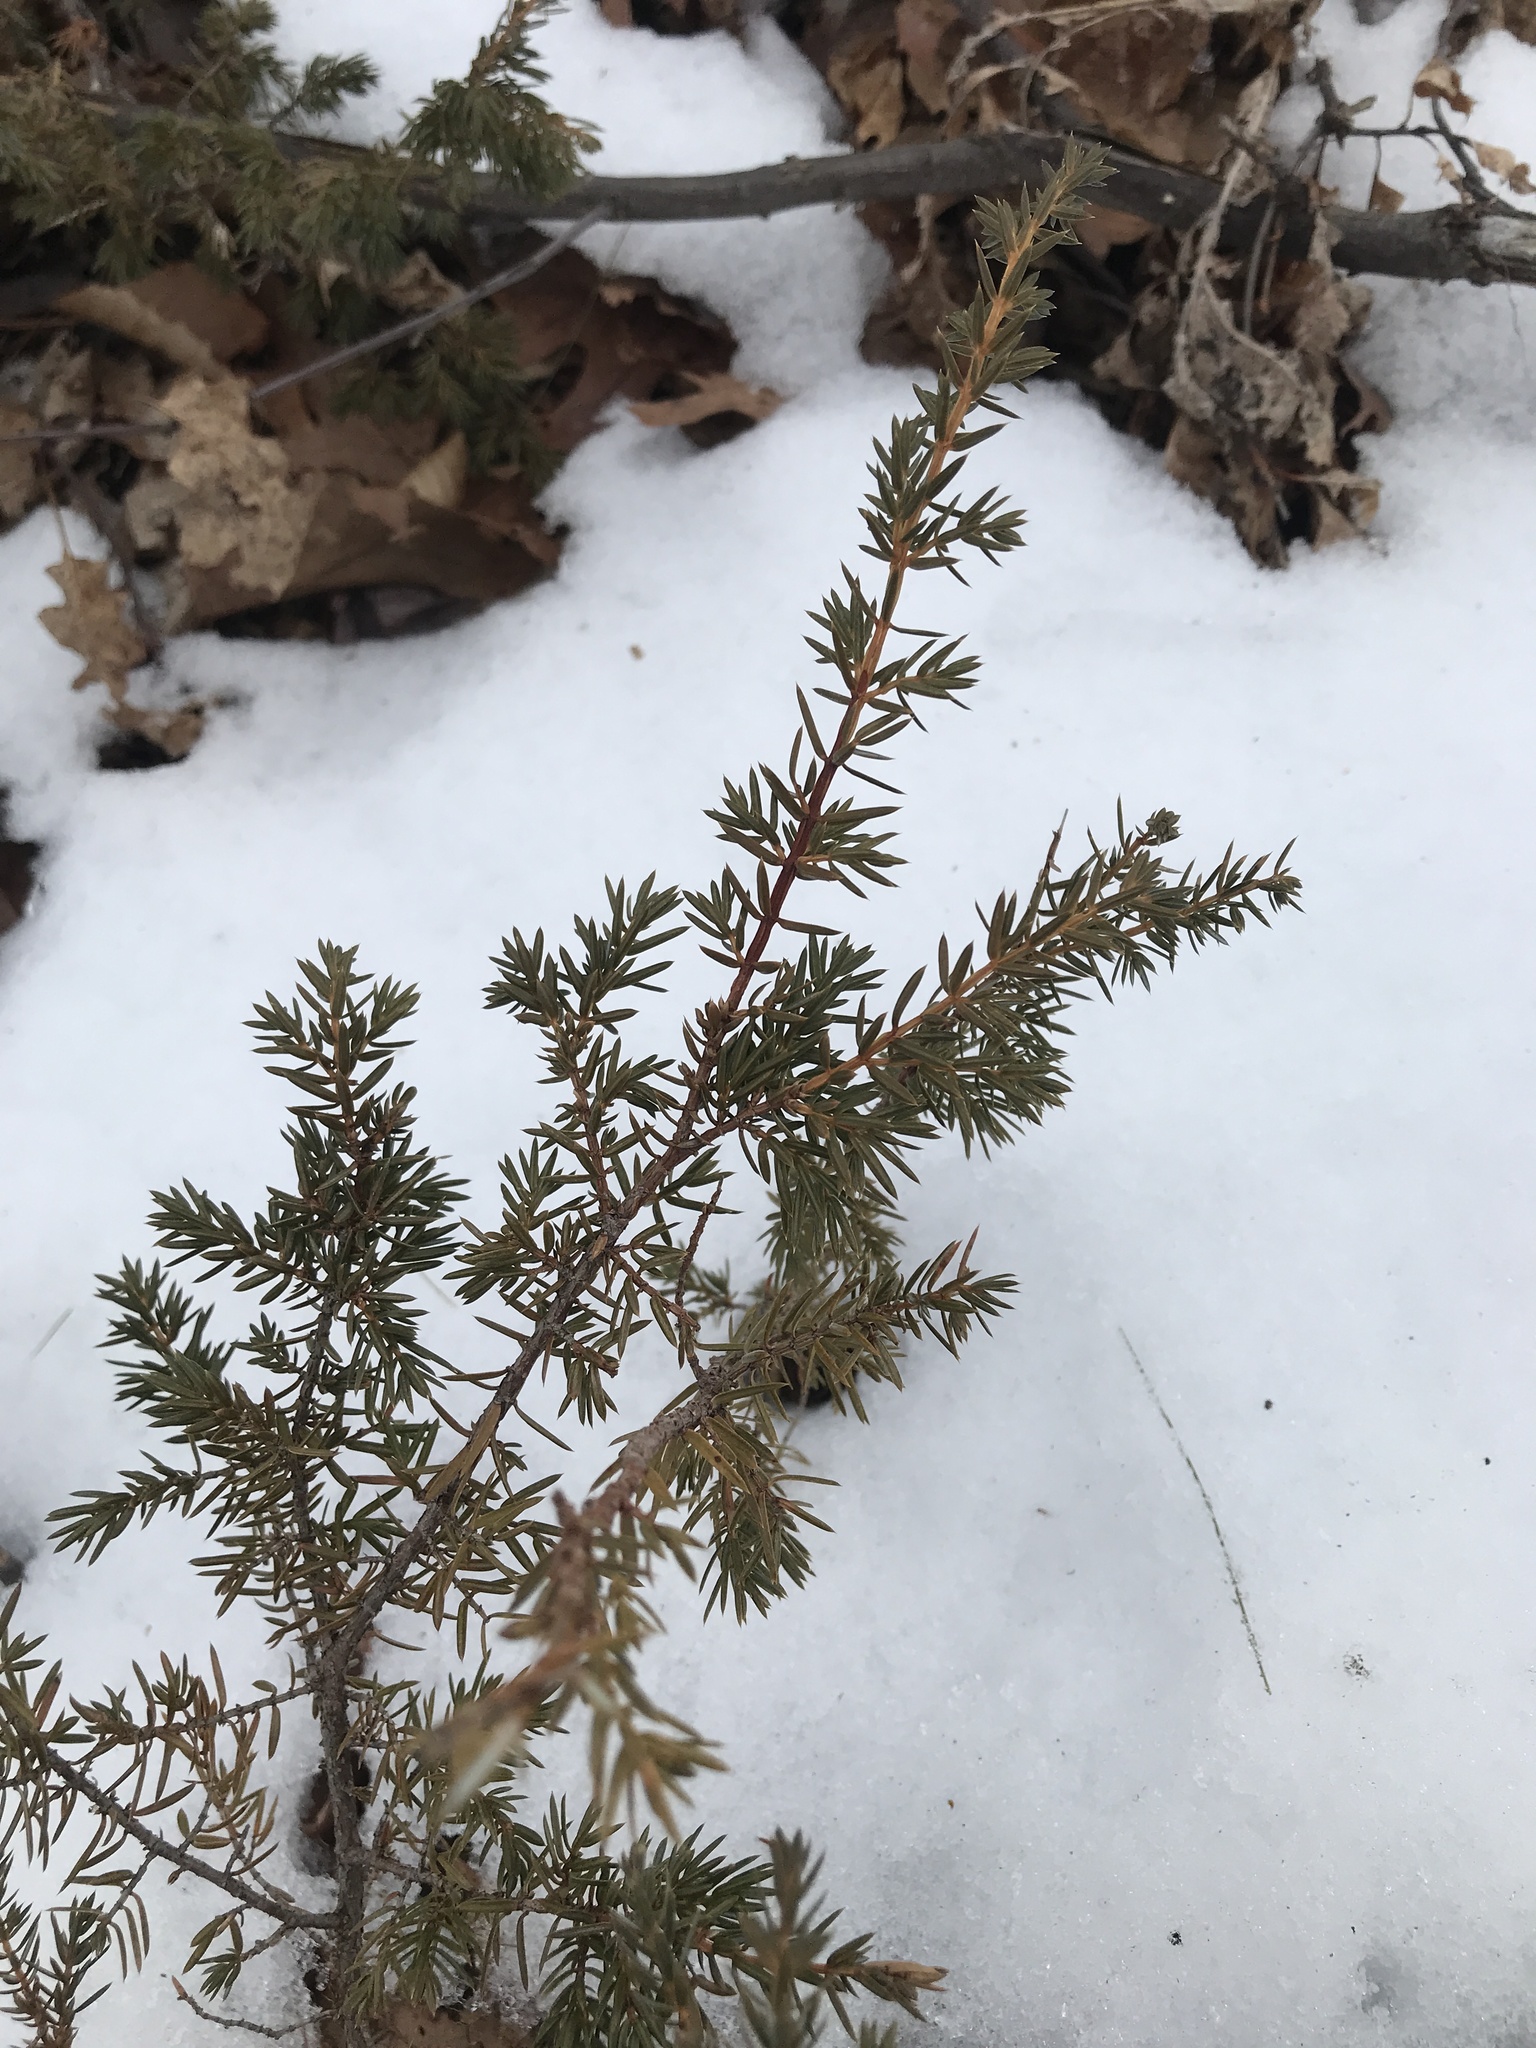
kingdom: Plantae
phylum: Tracheophyta
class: Pinopsida
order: Pinales
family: Cupressaceae
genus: Juniperus
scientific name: Juniperus communis
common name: Common juniper
